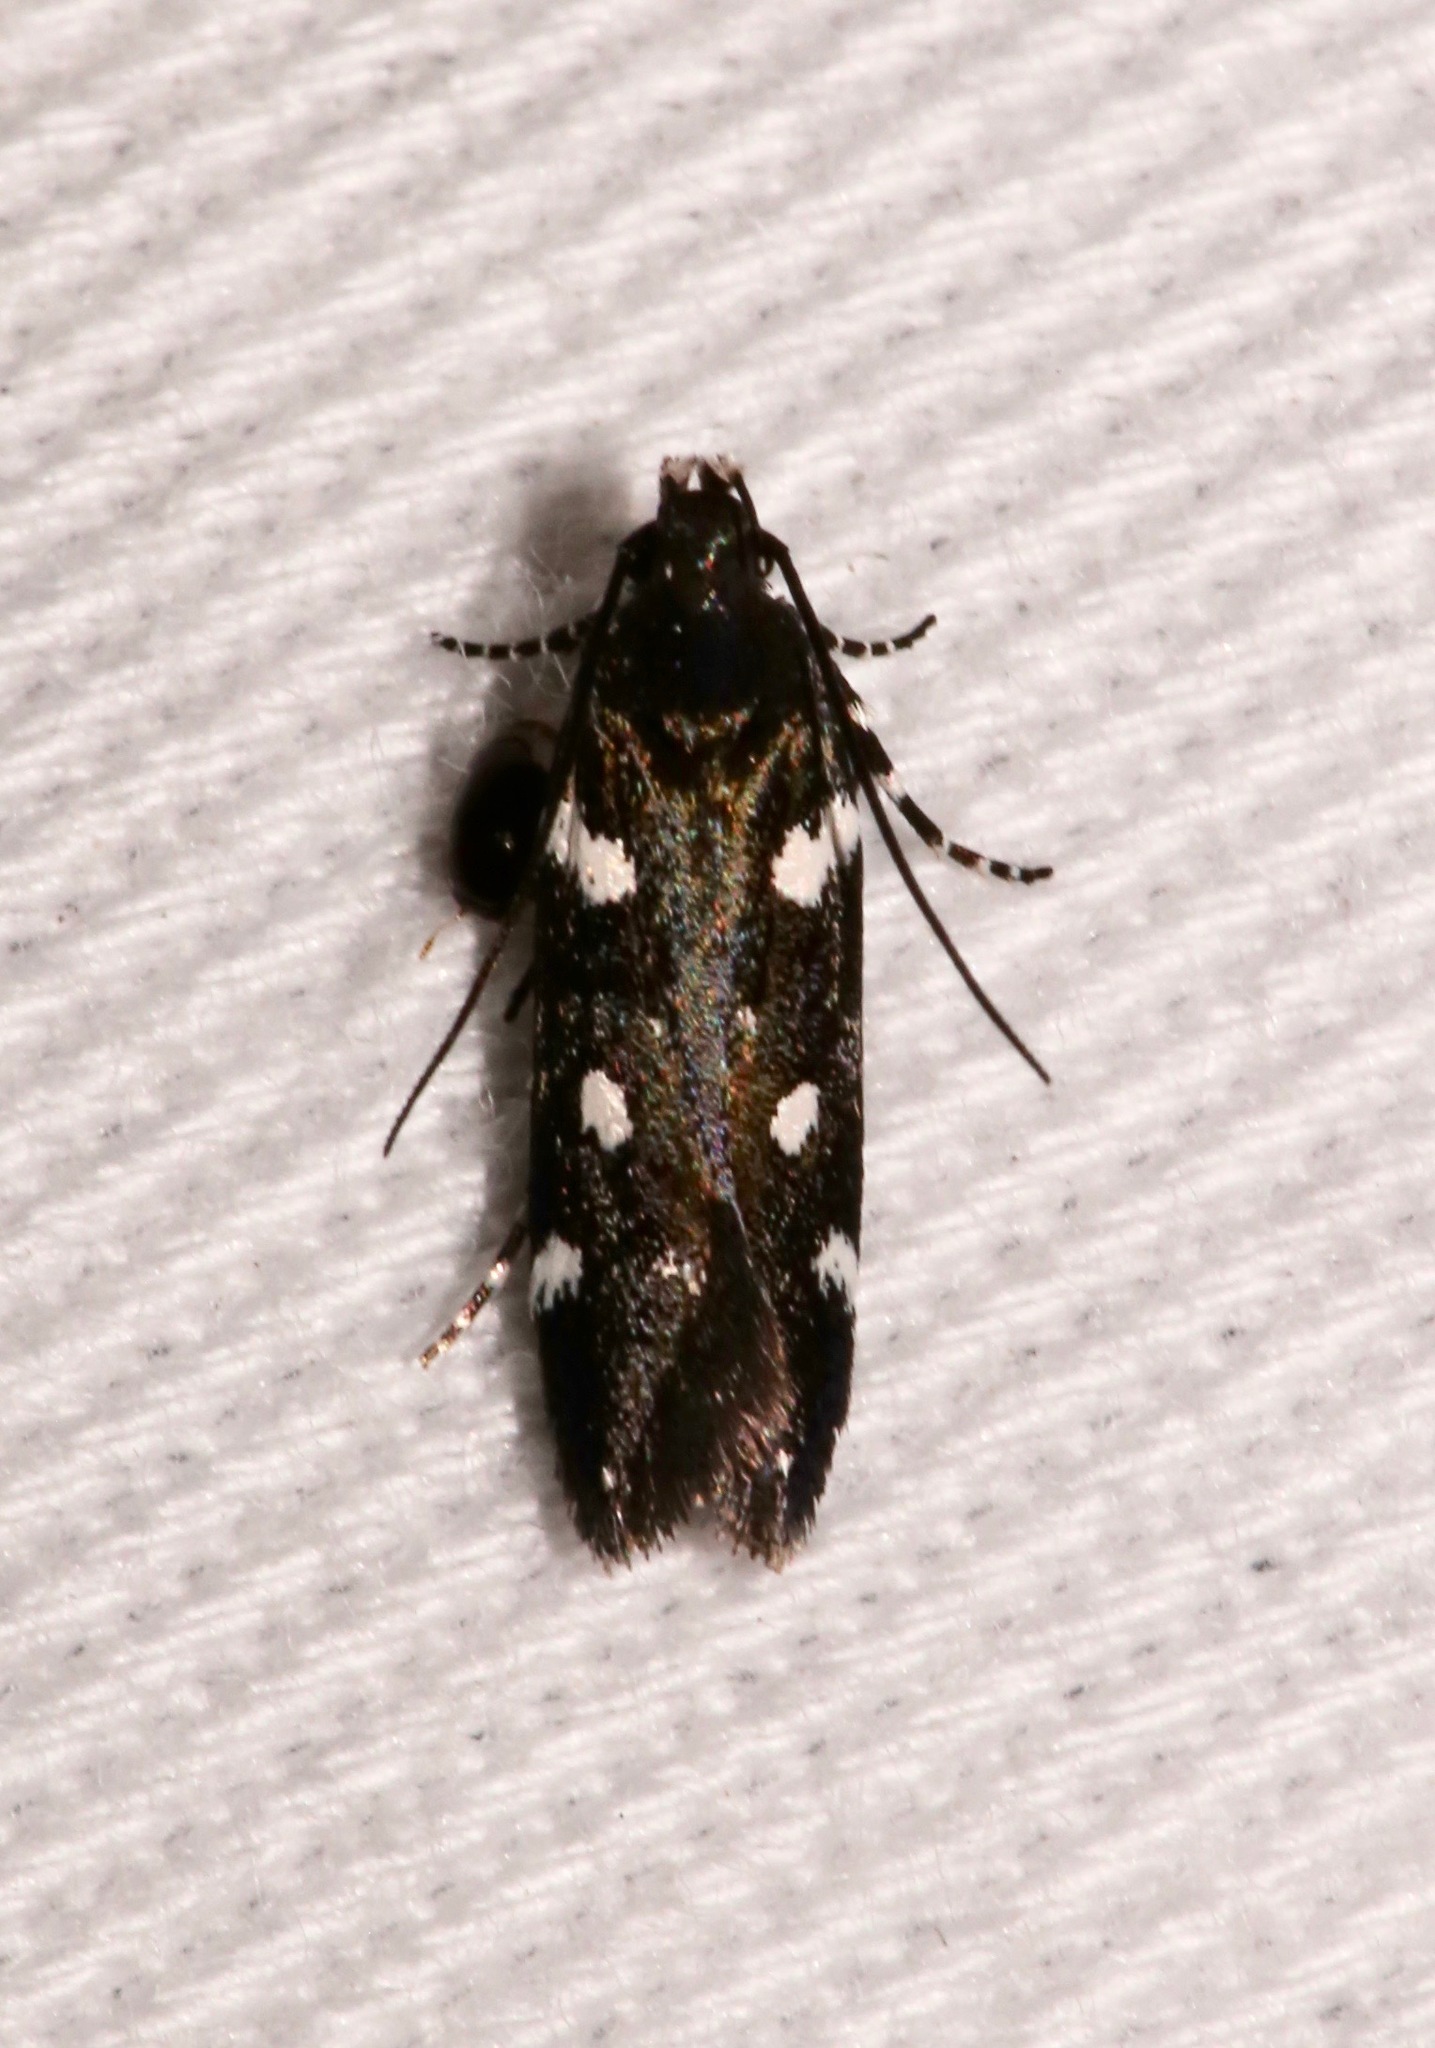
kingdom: Animalia
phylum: Arthropoda
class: Insecta
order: Lepidoptera
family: Gelechiidae
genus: Aroga
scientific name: Aroga compositella
